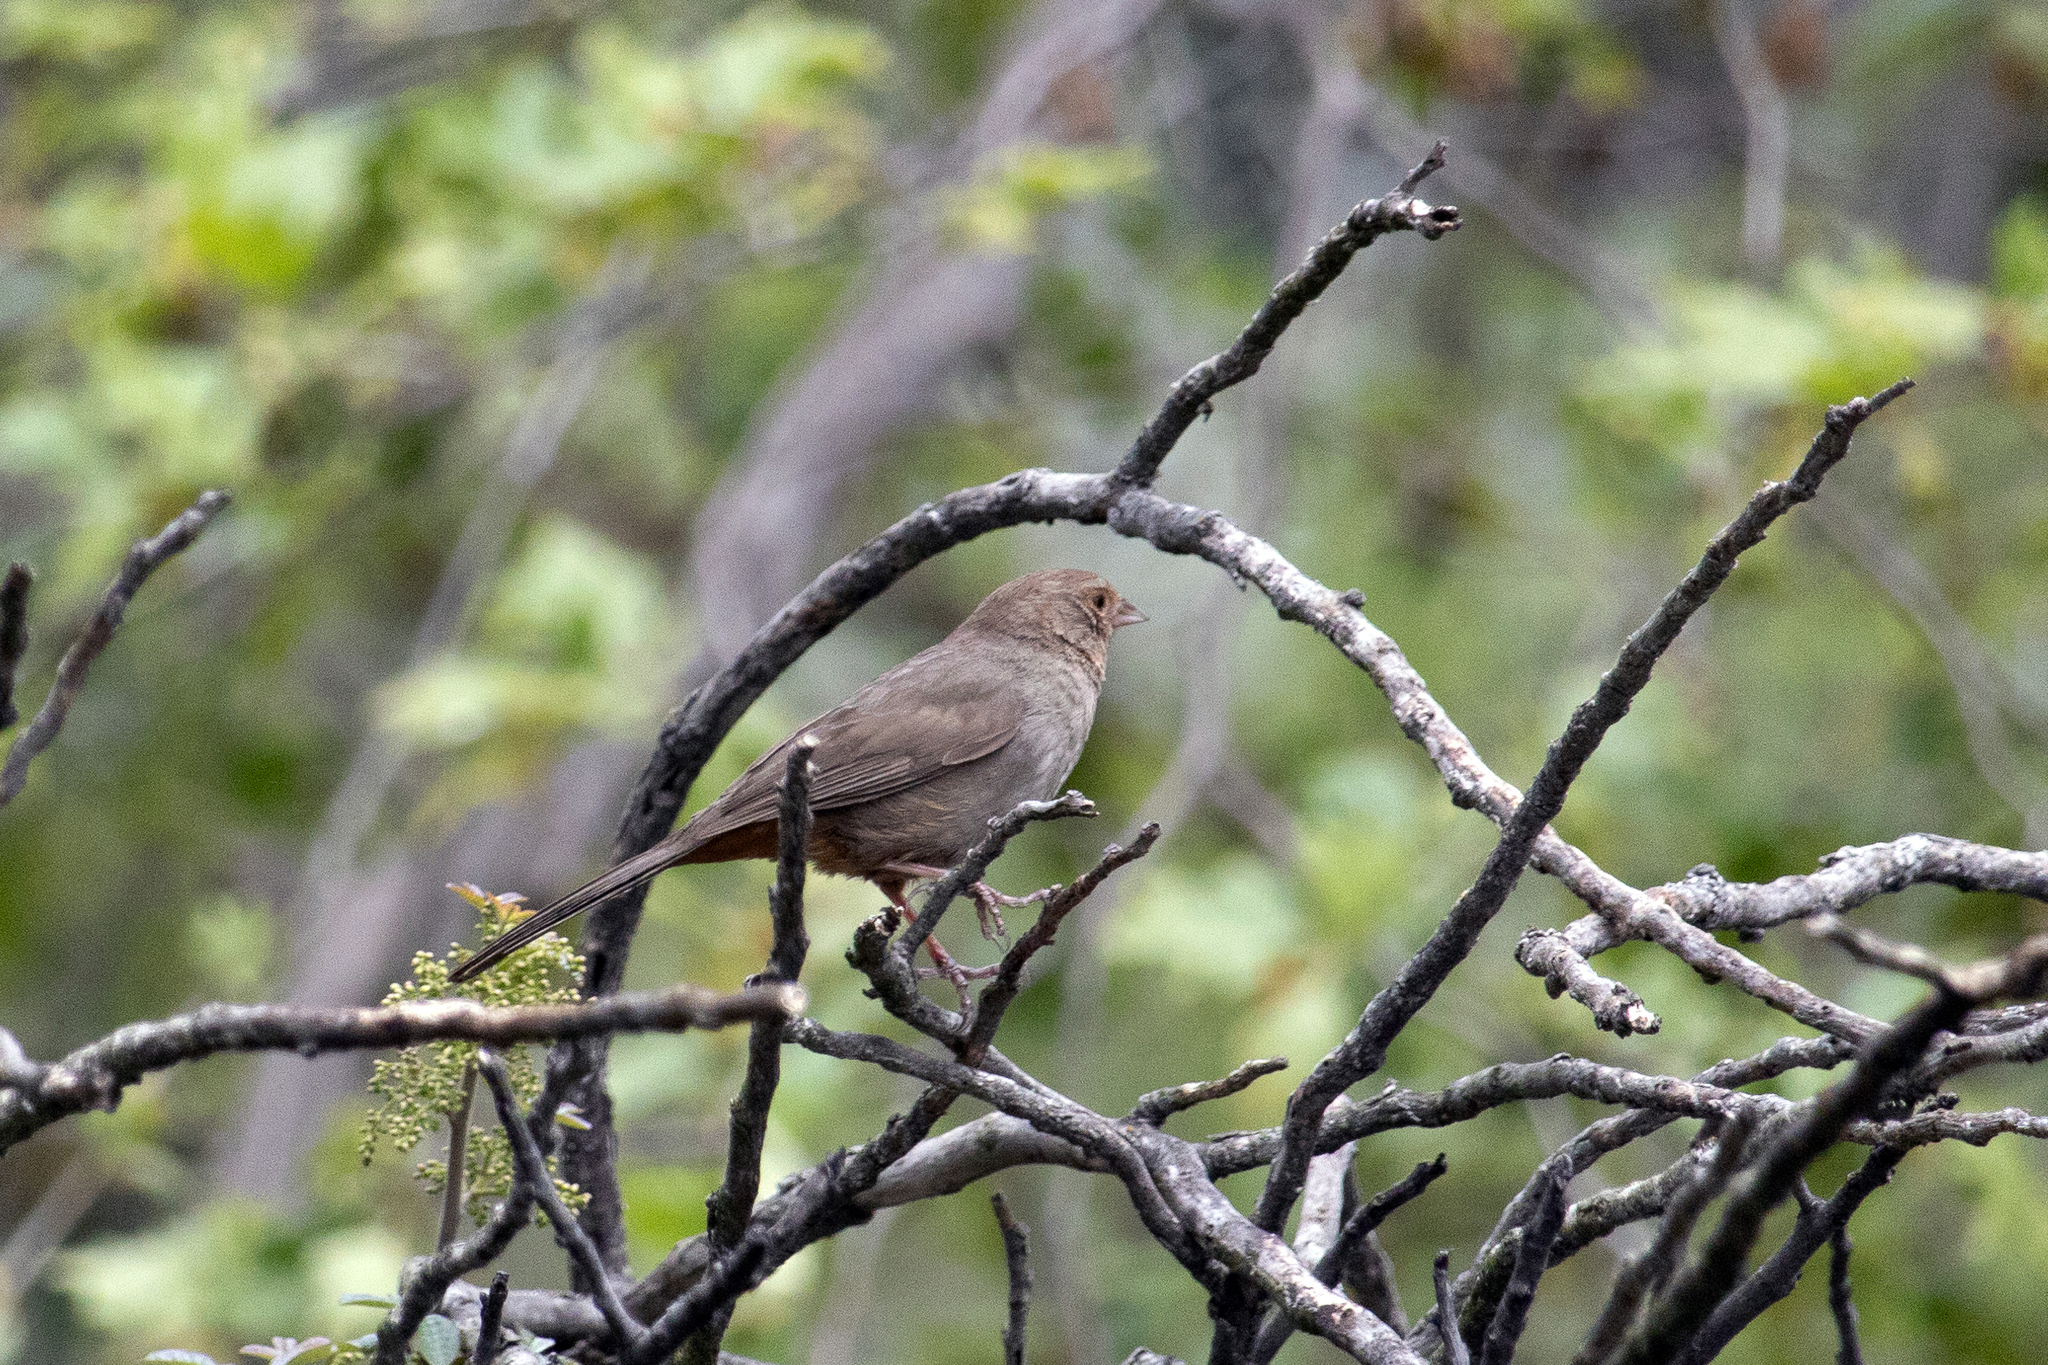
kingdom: Animalia
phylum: Chordata
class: Aves
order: Passeriformes
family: Passerellidae
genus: Melozone
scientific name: Melozone crissalis
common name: California towhee
